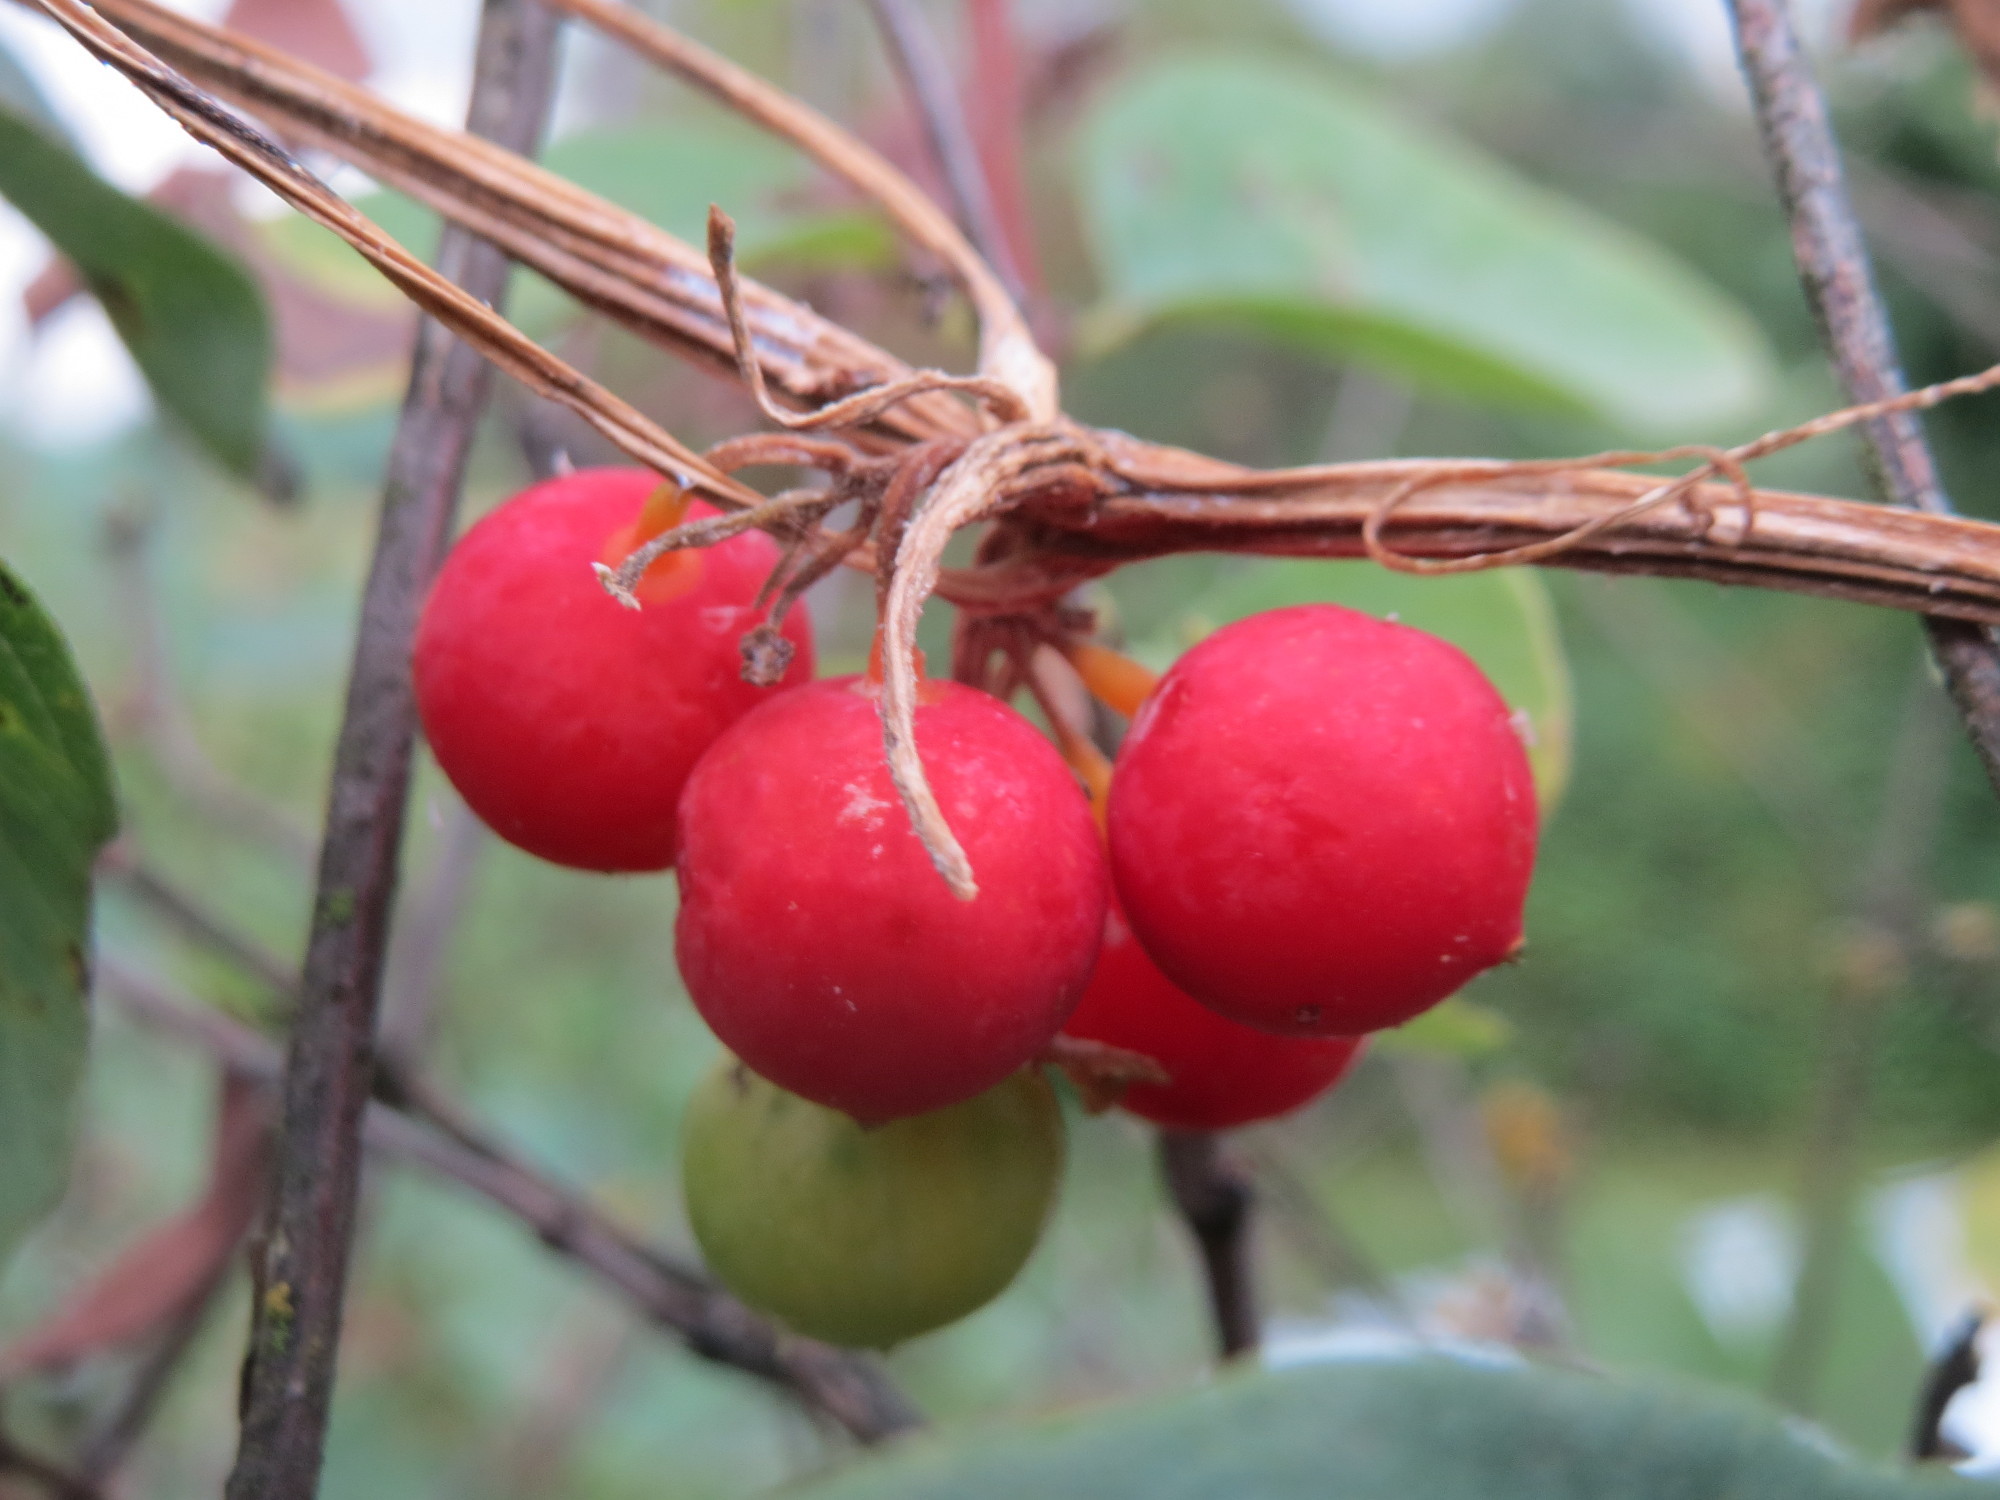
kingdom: Plantae
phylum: Tracheophyta
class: Magnoliopsida
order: Cucurbitales
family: Cucurbitaceae
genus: Bryonia
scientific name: Bryonia dioica
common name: White bryony
